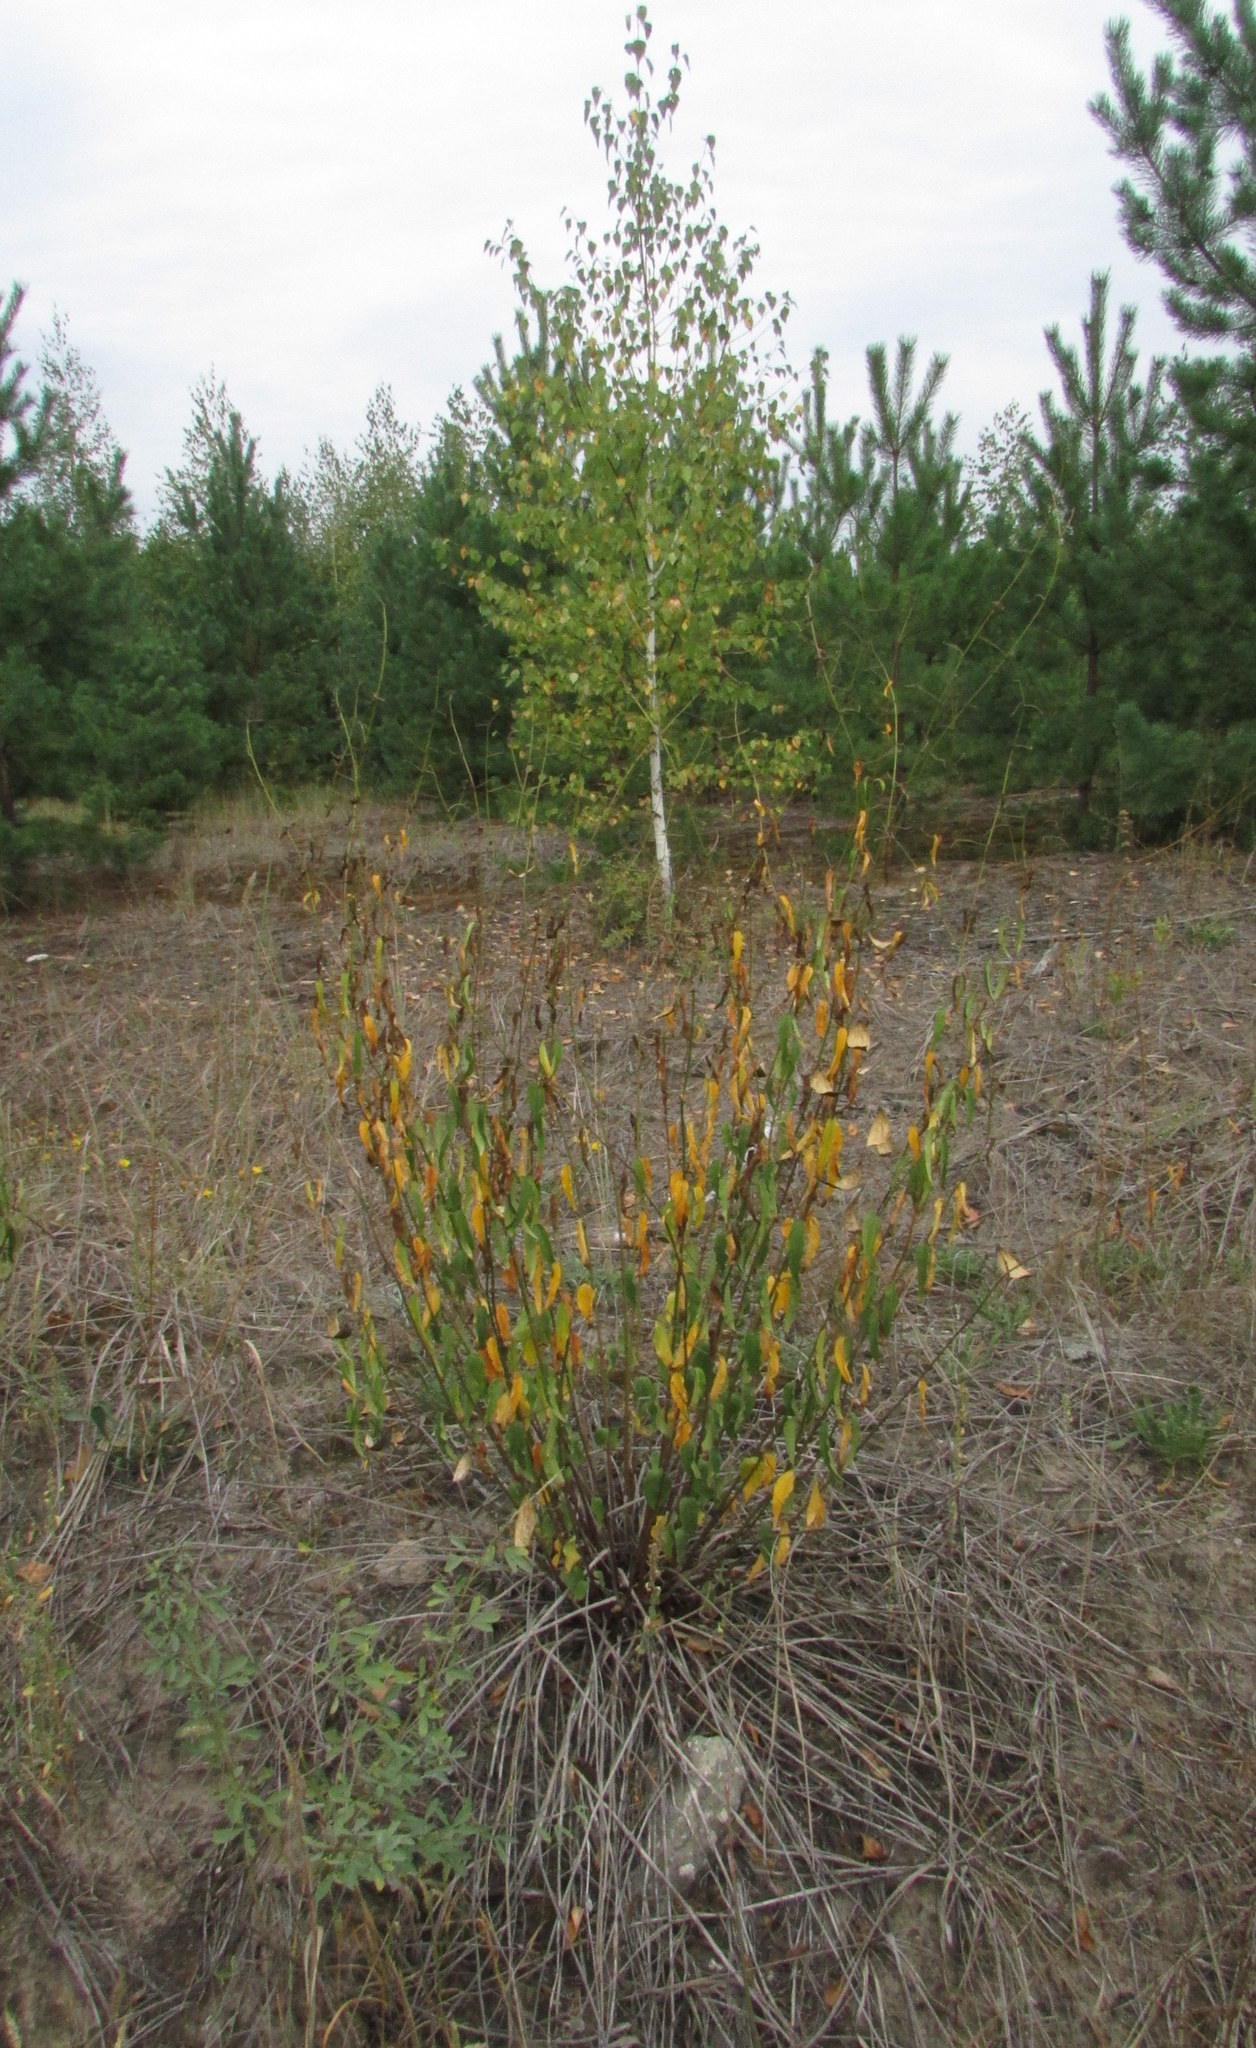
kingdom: Plantae
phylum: Tracheophyta
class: Magnoliopsida
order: Gentianales
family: Apocynaceae
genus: Vincetoxicum
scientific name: Vincetoxicum hirundinaria
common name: White swallowwort
